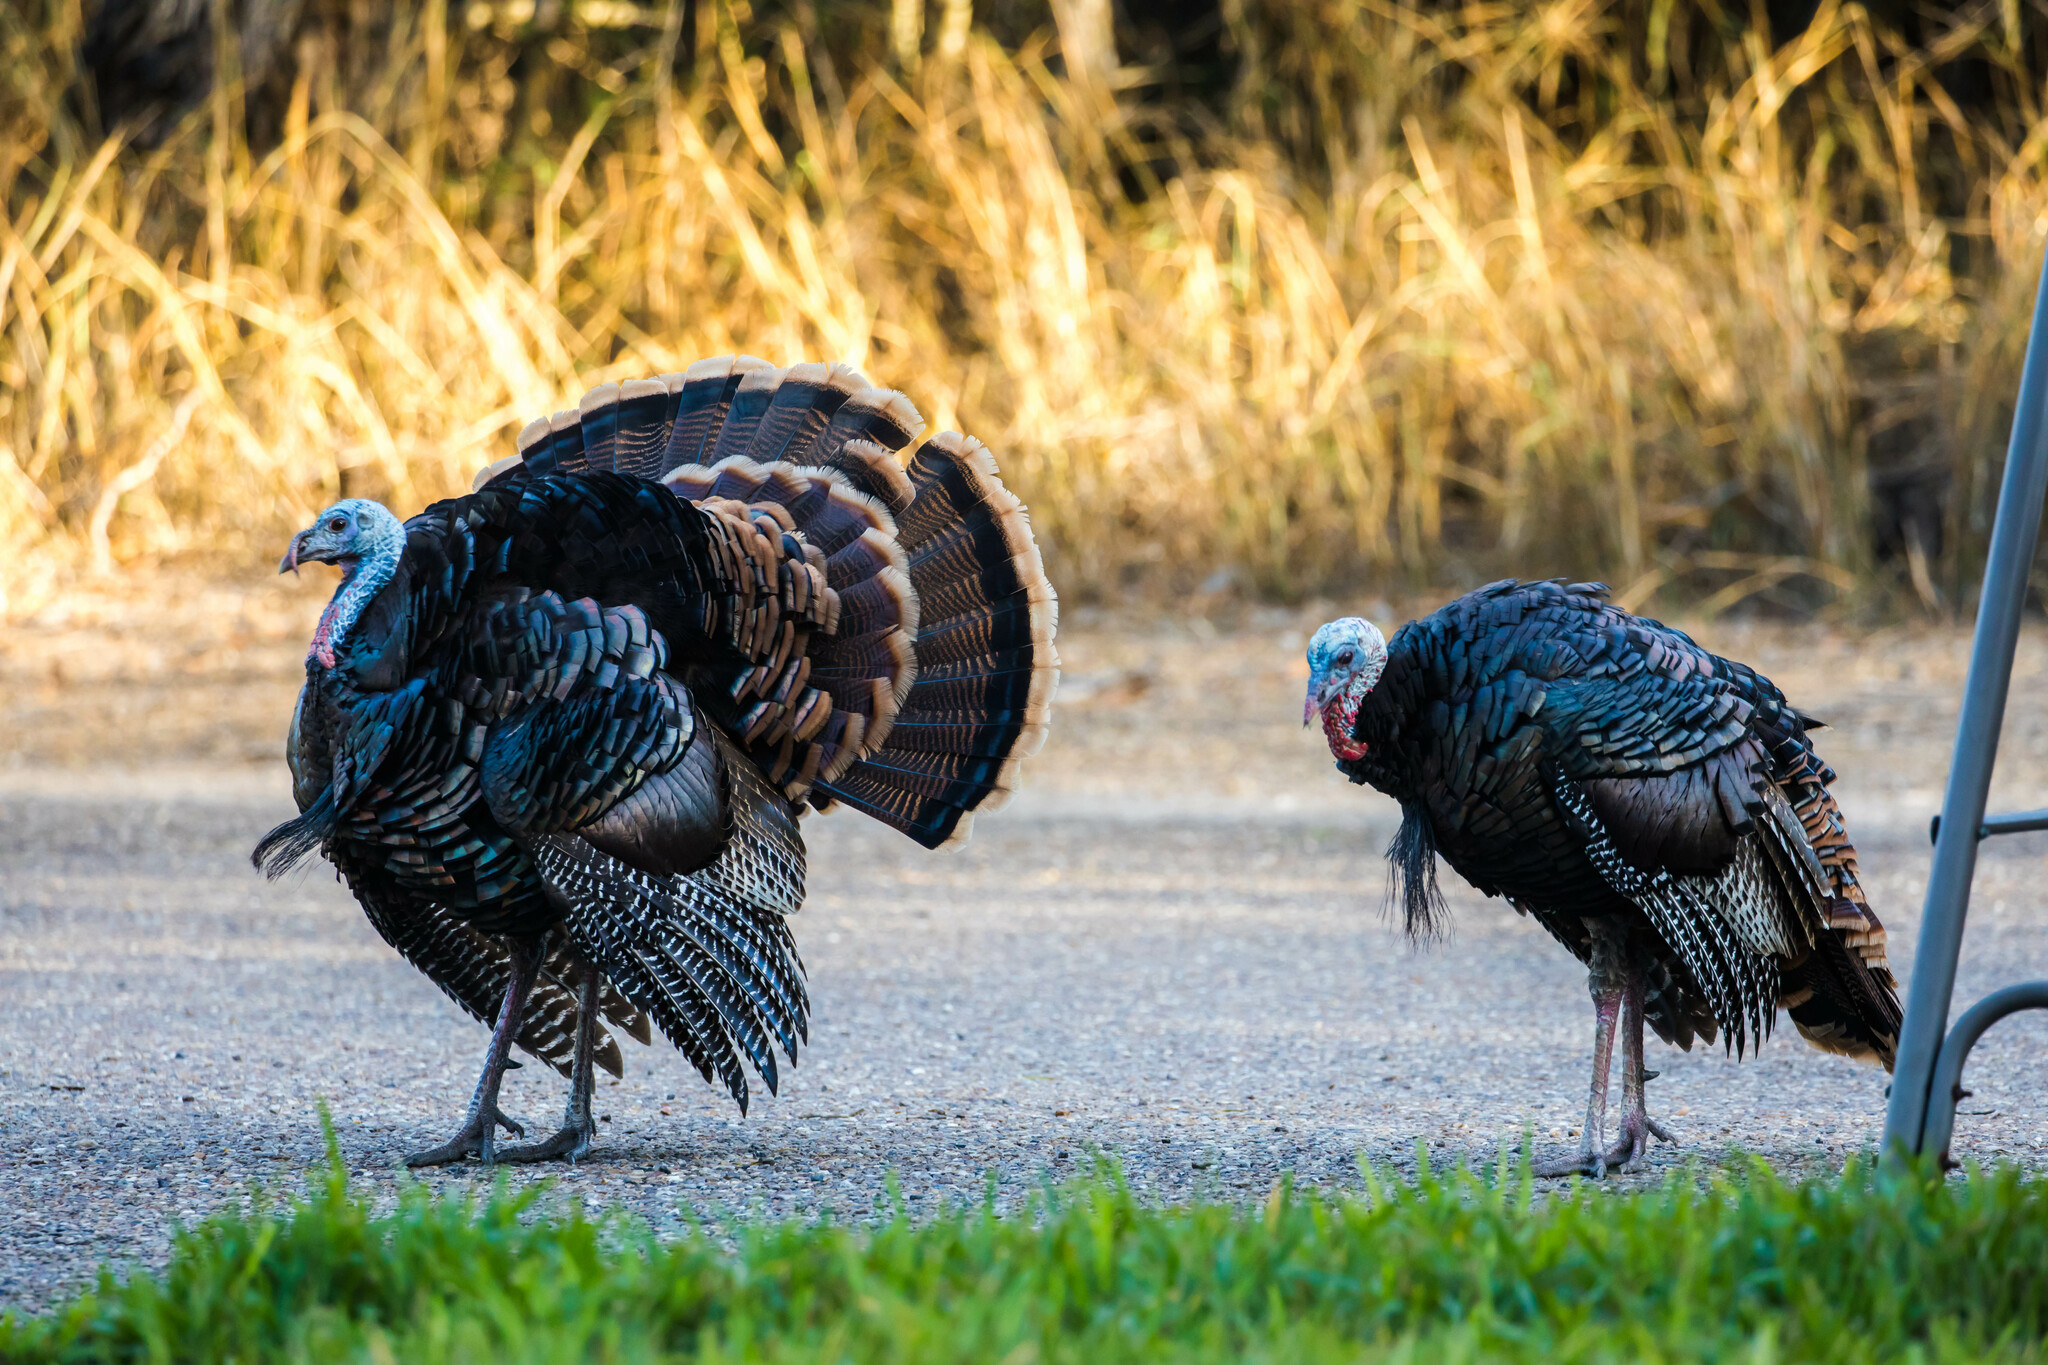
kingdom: Animalia
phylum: Chordata
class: Aves
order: Galliformes
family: Phasianidae
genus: Meleagris
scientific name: Meleagris gallopavo
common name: Wild turkey
